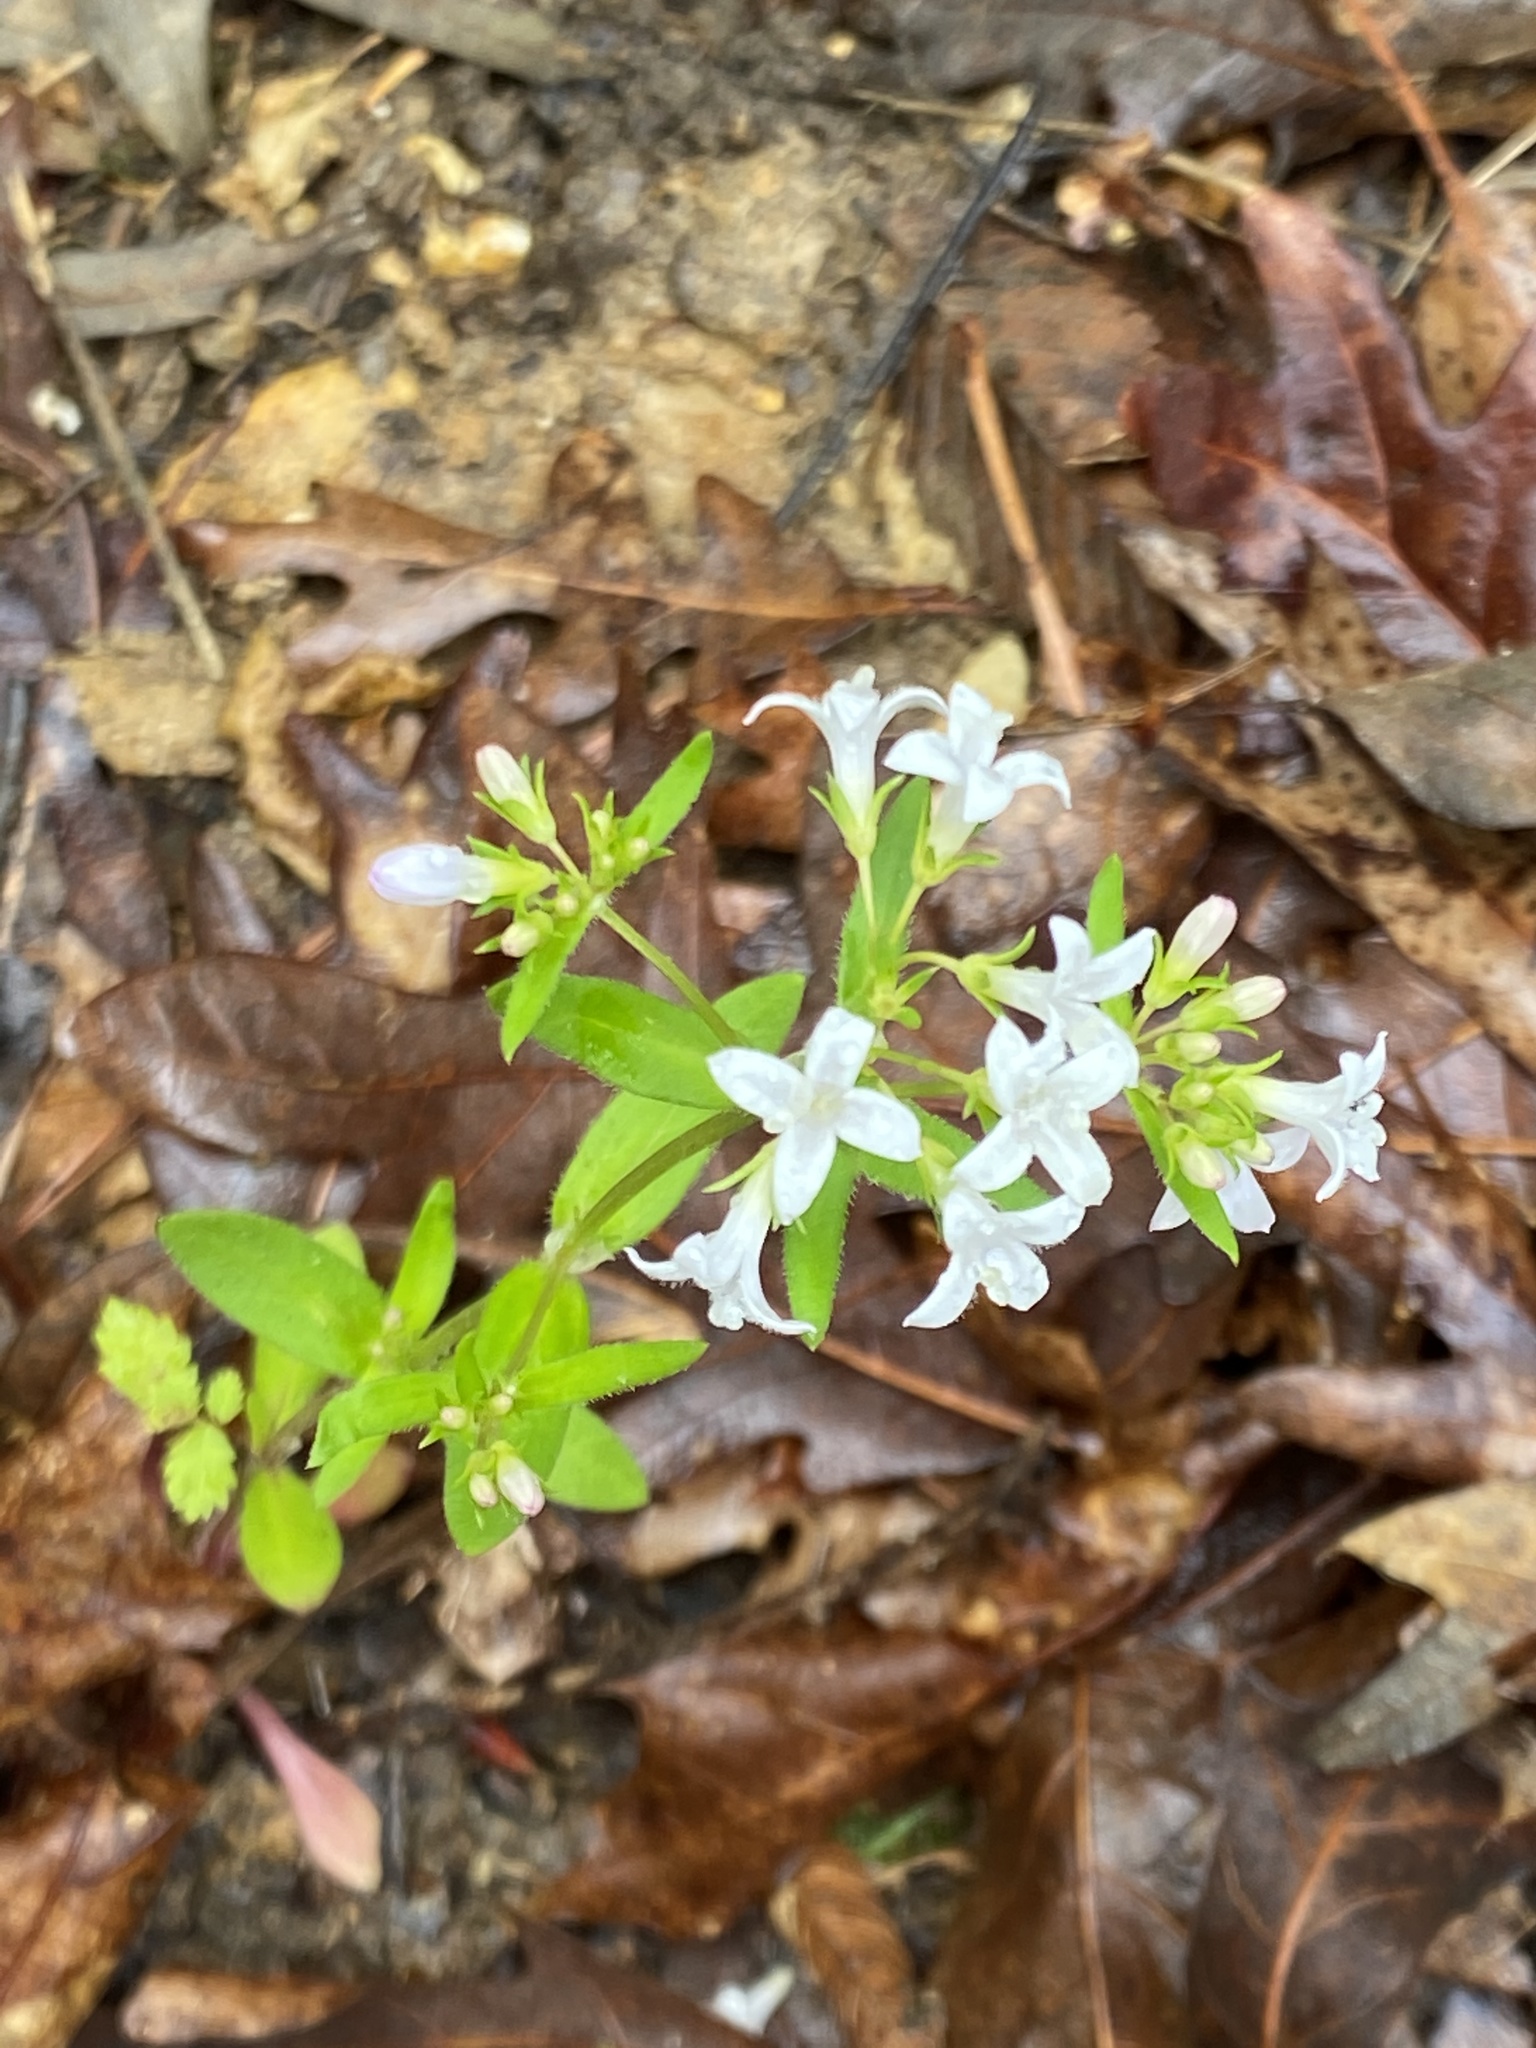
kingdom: Plantae
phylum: Tracheophyta
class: Magnoliopsida
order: Gentianales
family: Rubiaceae
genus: Houstonia
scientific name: Houstonia purpurea
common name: Summer bluet
